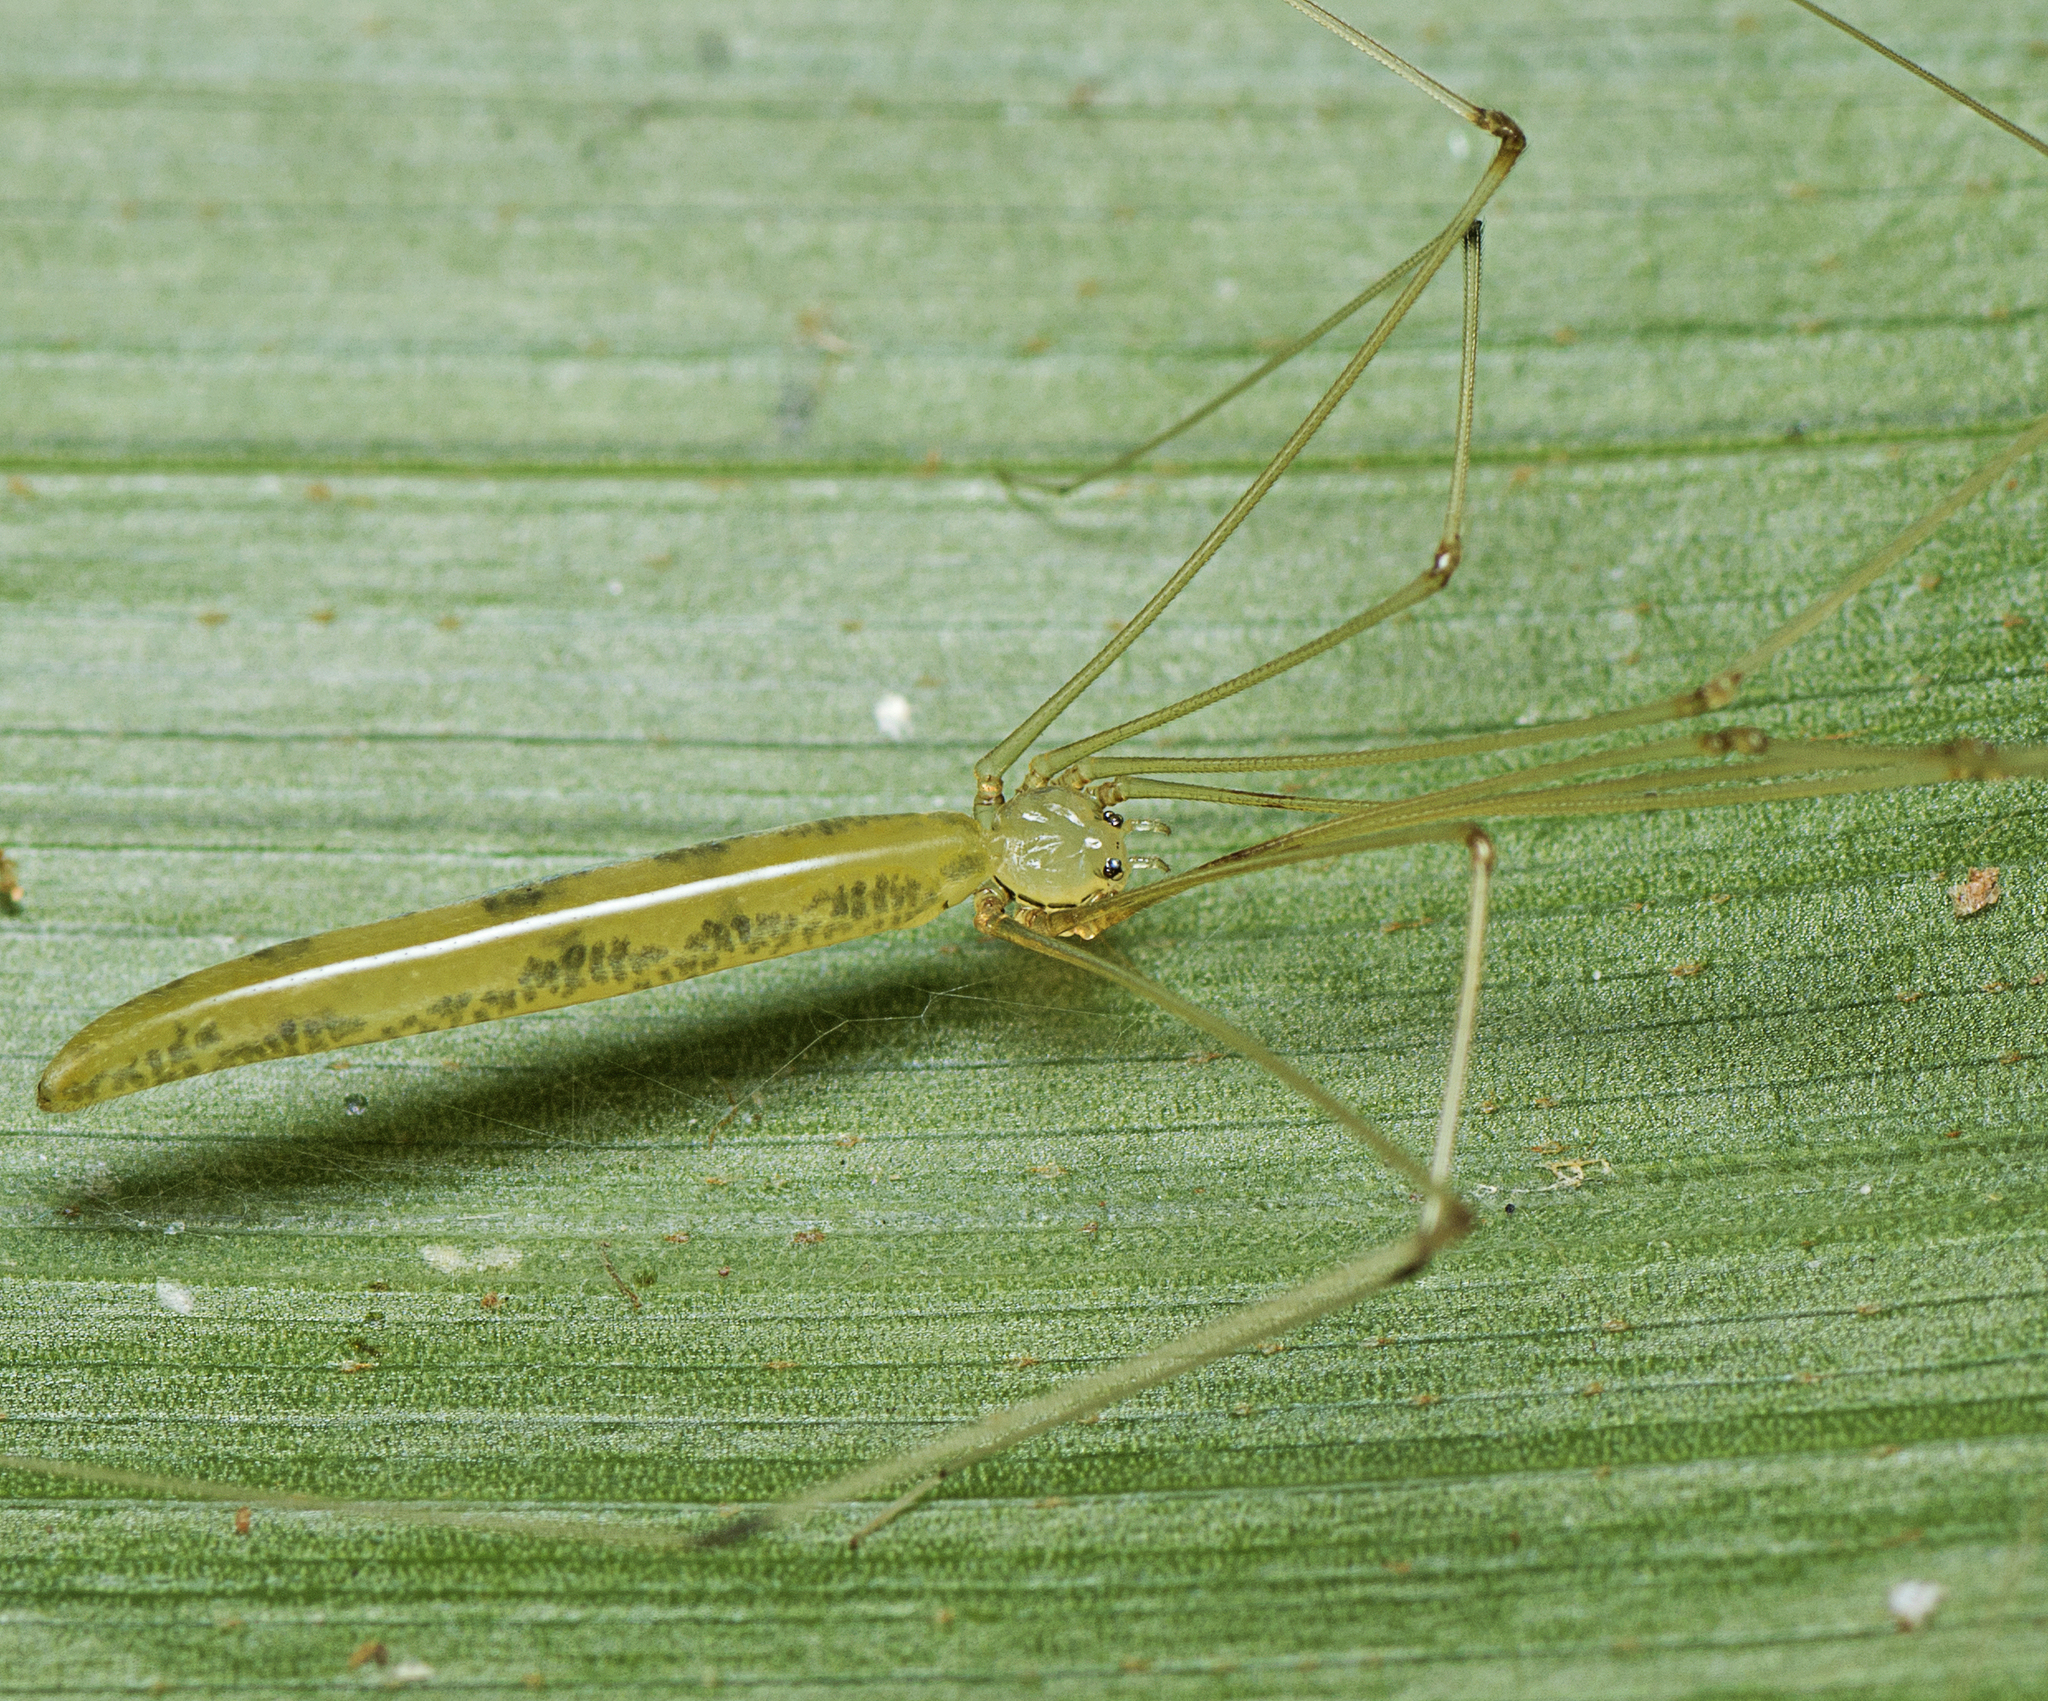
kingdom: Animalia
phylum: Arthropoda
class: Arachnida
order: Araneae
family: Pholcidae
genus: Micromerys
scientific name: Micromerys raveni
